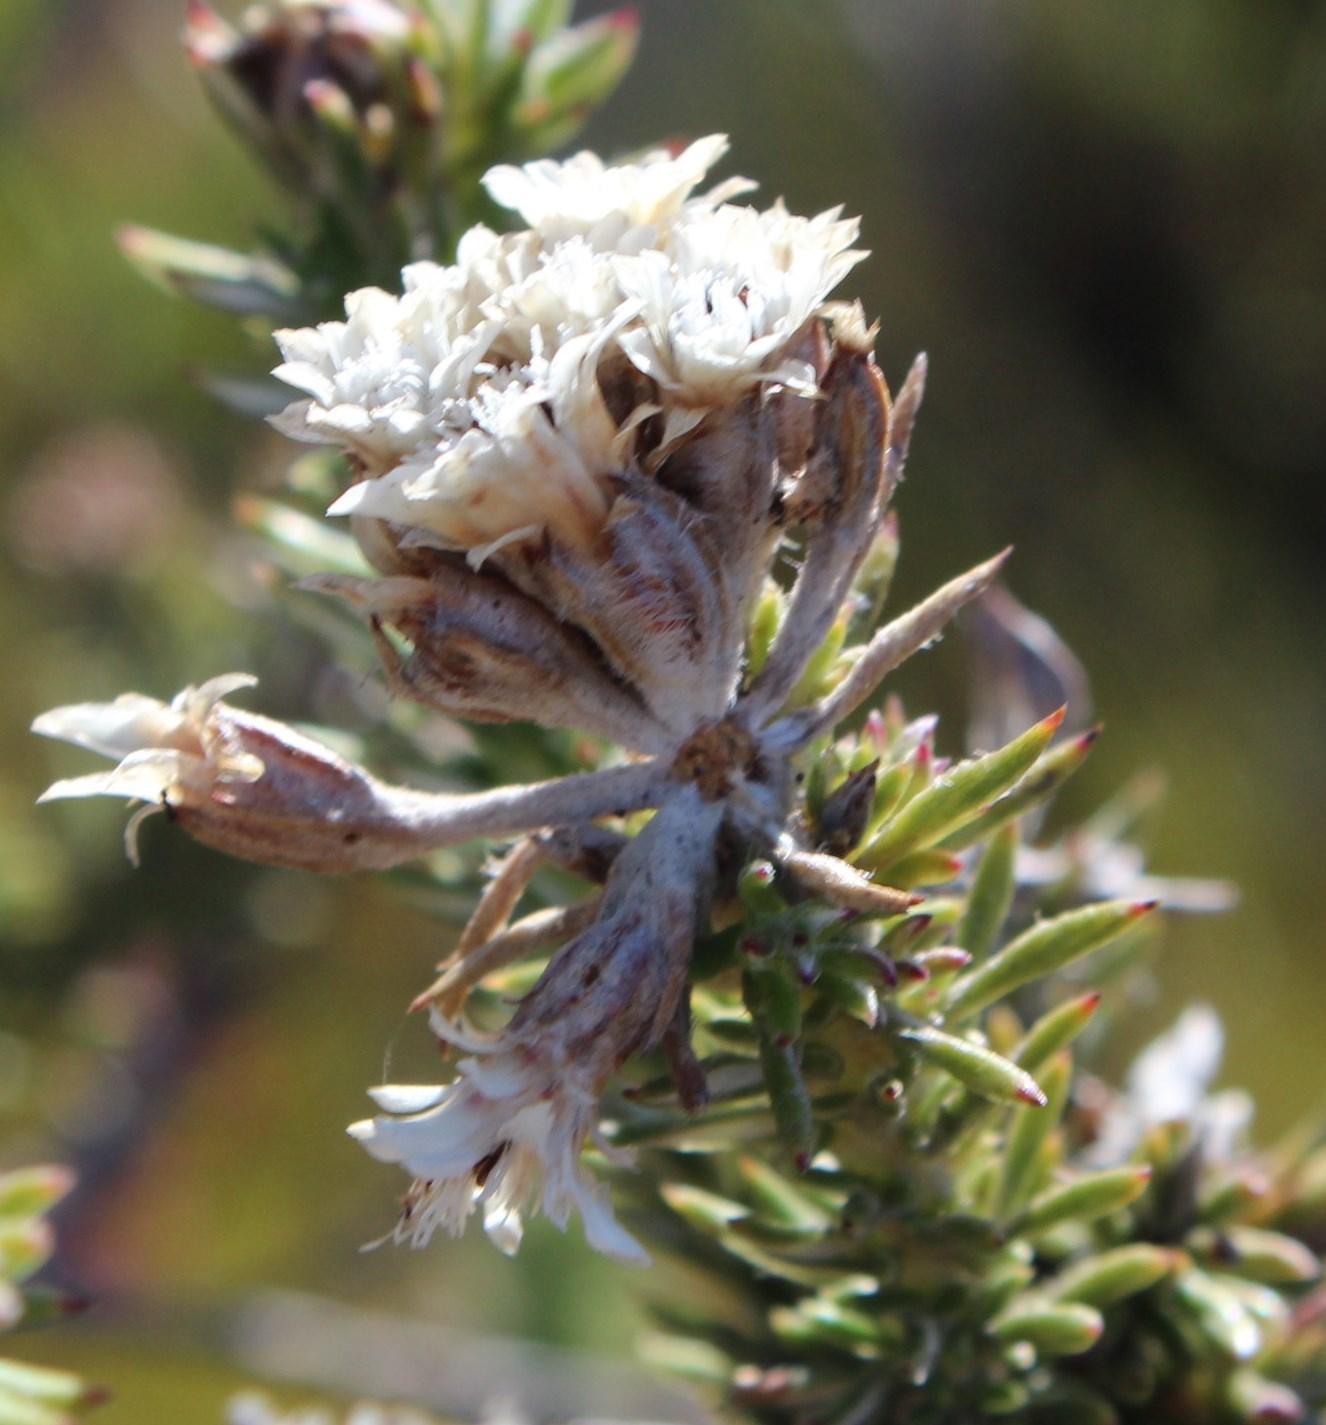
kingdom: Plantae
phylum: Tracheophyta
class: Magnoliopsida
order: Asterales
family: Asteraceae
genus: Metalasia
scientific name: Metalasia lichtensteinii
